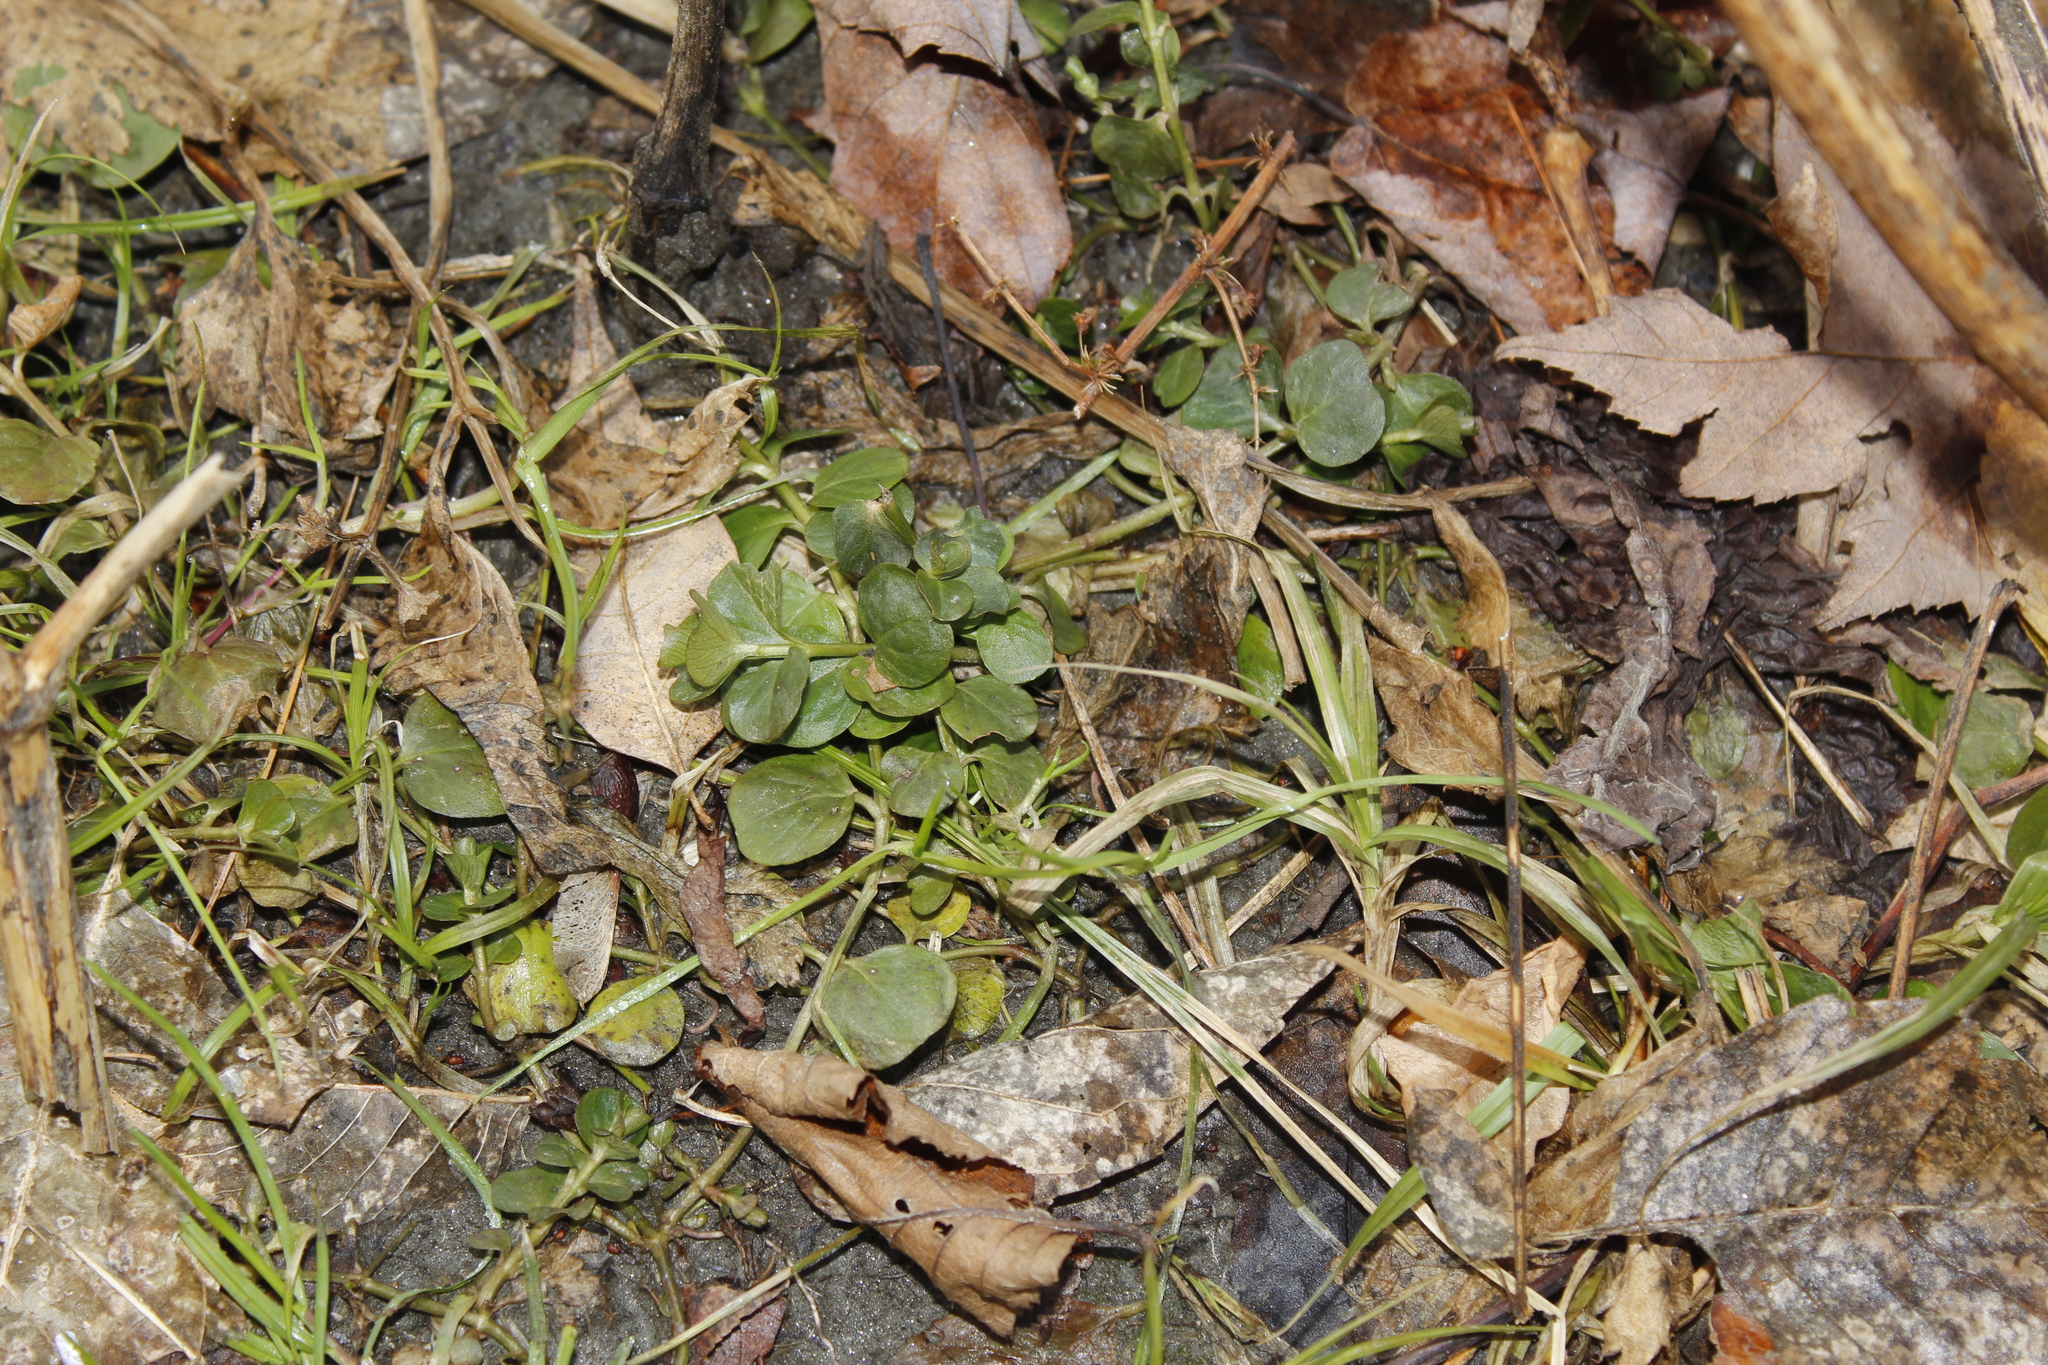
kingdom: Plantae
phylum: Tracheophyta
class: Magnoliopsida
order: Ericales
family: Primulaceae
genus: Lysimachia
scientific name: Lysimachia nummularia
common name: Moneywort
